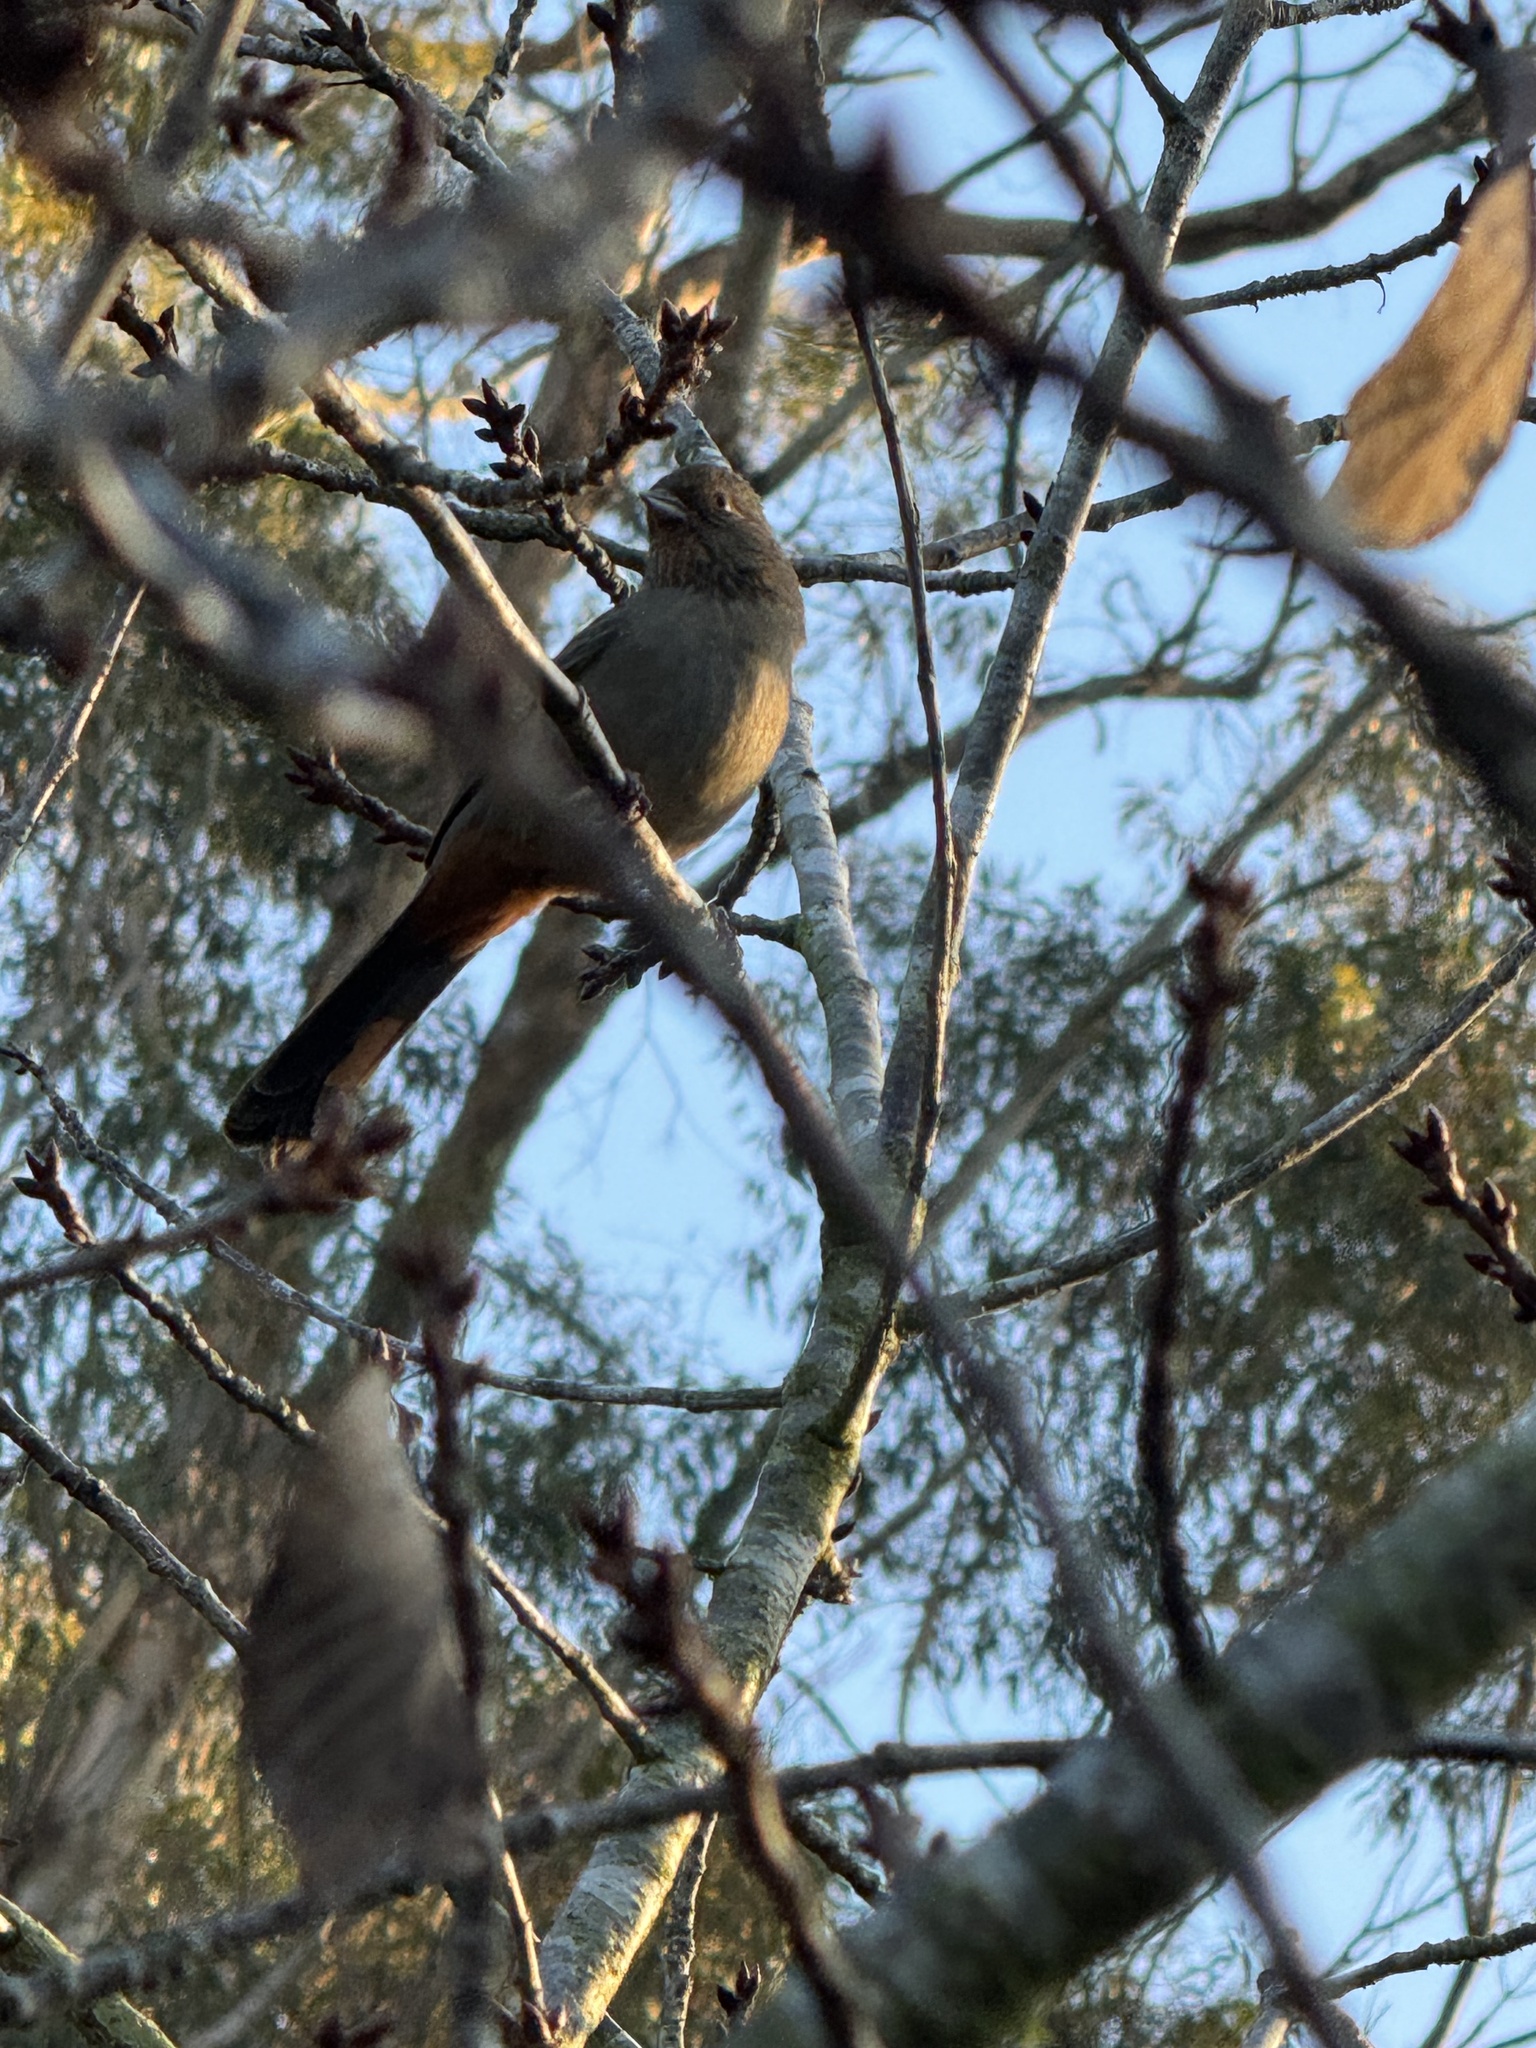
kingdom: Animalia
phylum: Chordata
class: Aves
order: Passeriformes
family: Passerellidae
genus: Melozone
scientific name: Melozone crissalis
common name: California towhee
